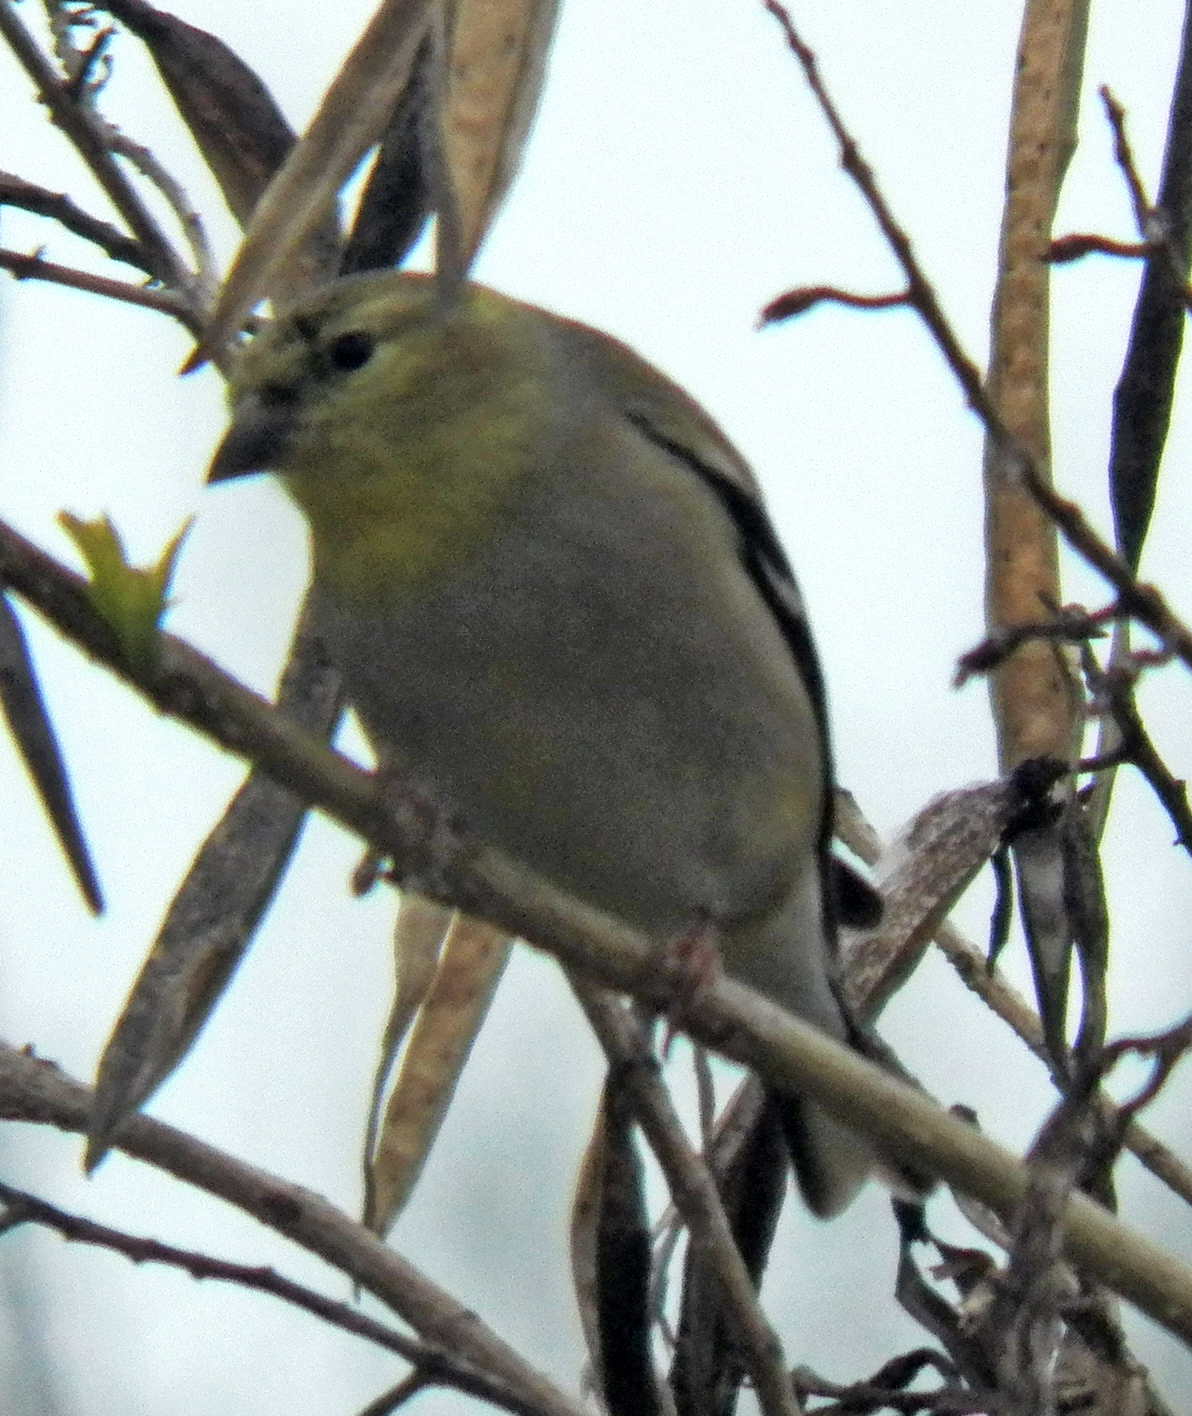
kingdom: Animalia
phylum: Chordata
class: Aves
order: Passeriformes
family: Fringillidae
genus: Spinus
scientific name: Spinus tristis
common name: American goldfinch
